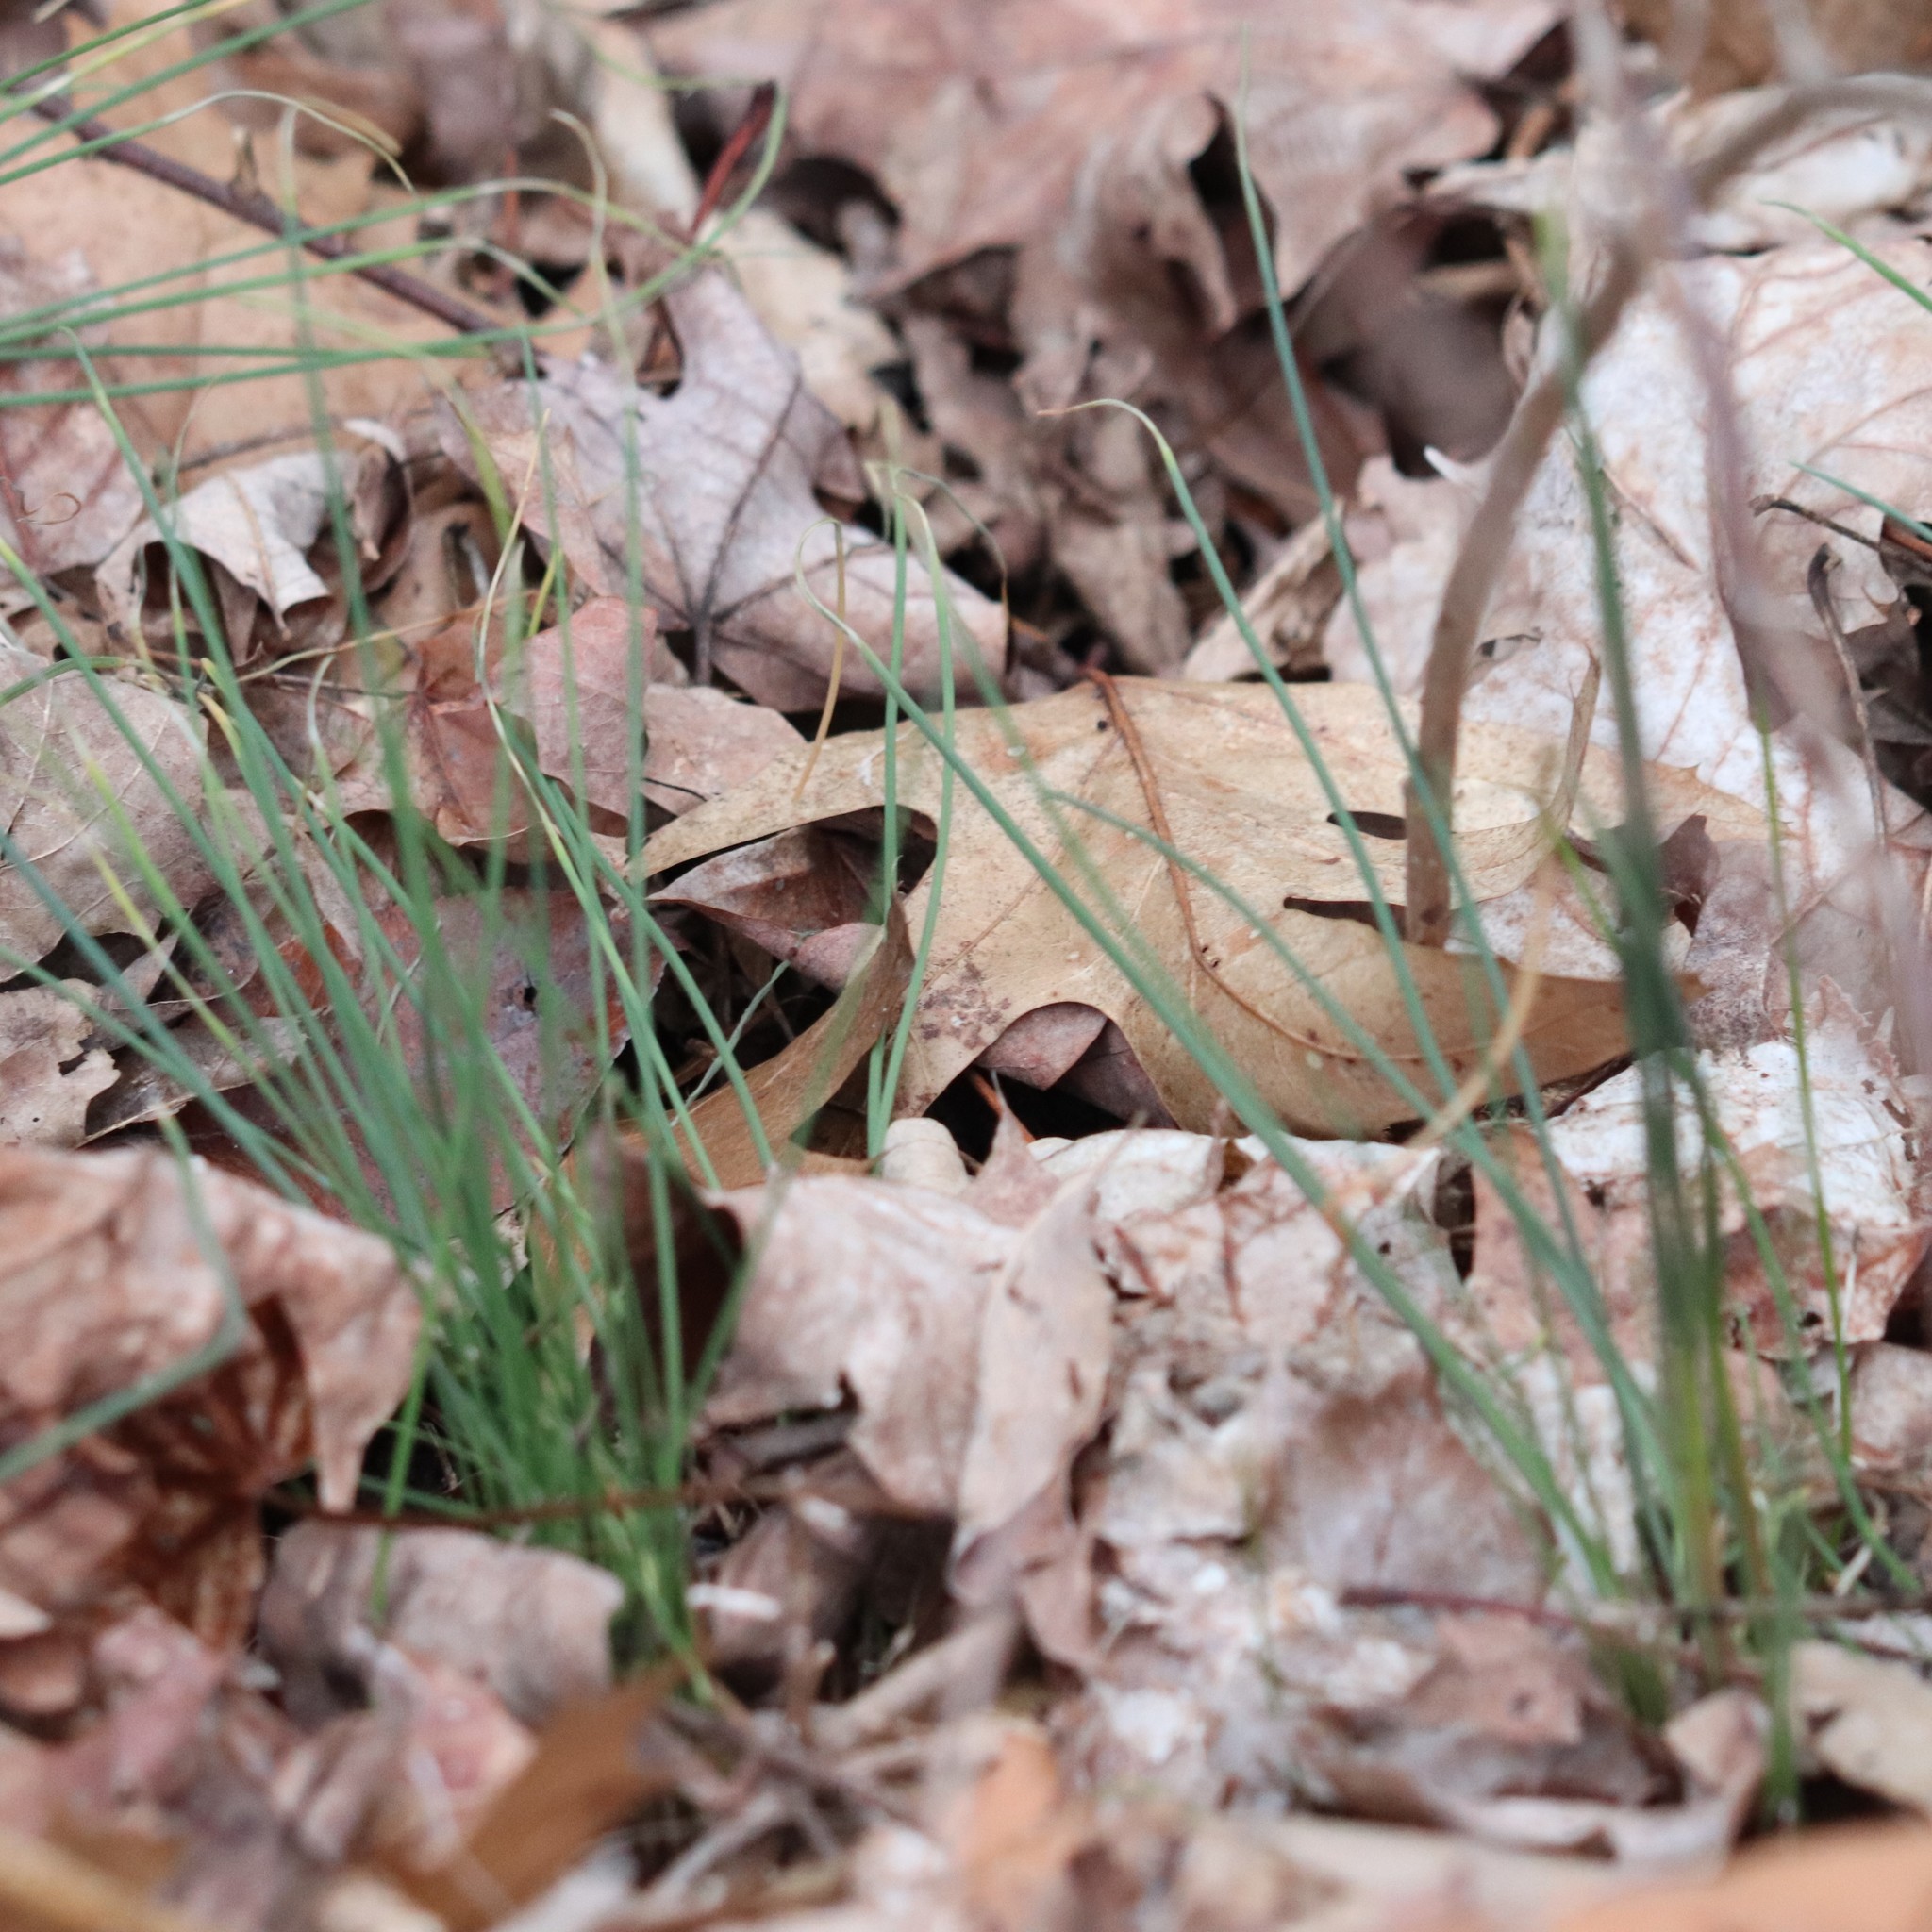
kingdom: Plantae
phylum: Tracheophyta
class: Liliopsida
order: Asparagales
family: Amaryllidaceae
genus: Allium
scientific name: Allium vineale
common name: Crow garlic
